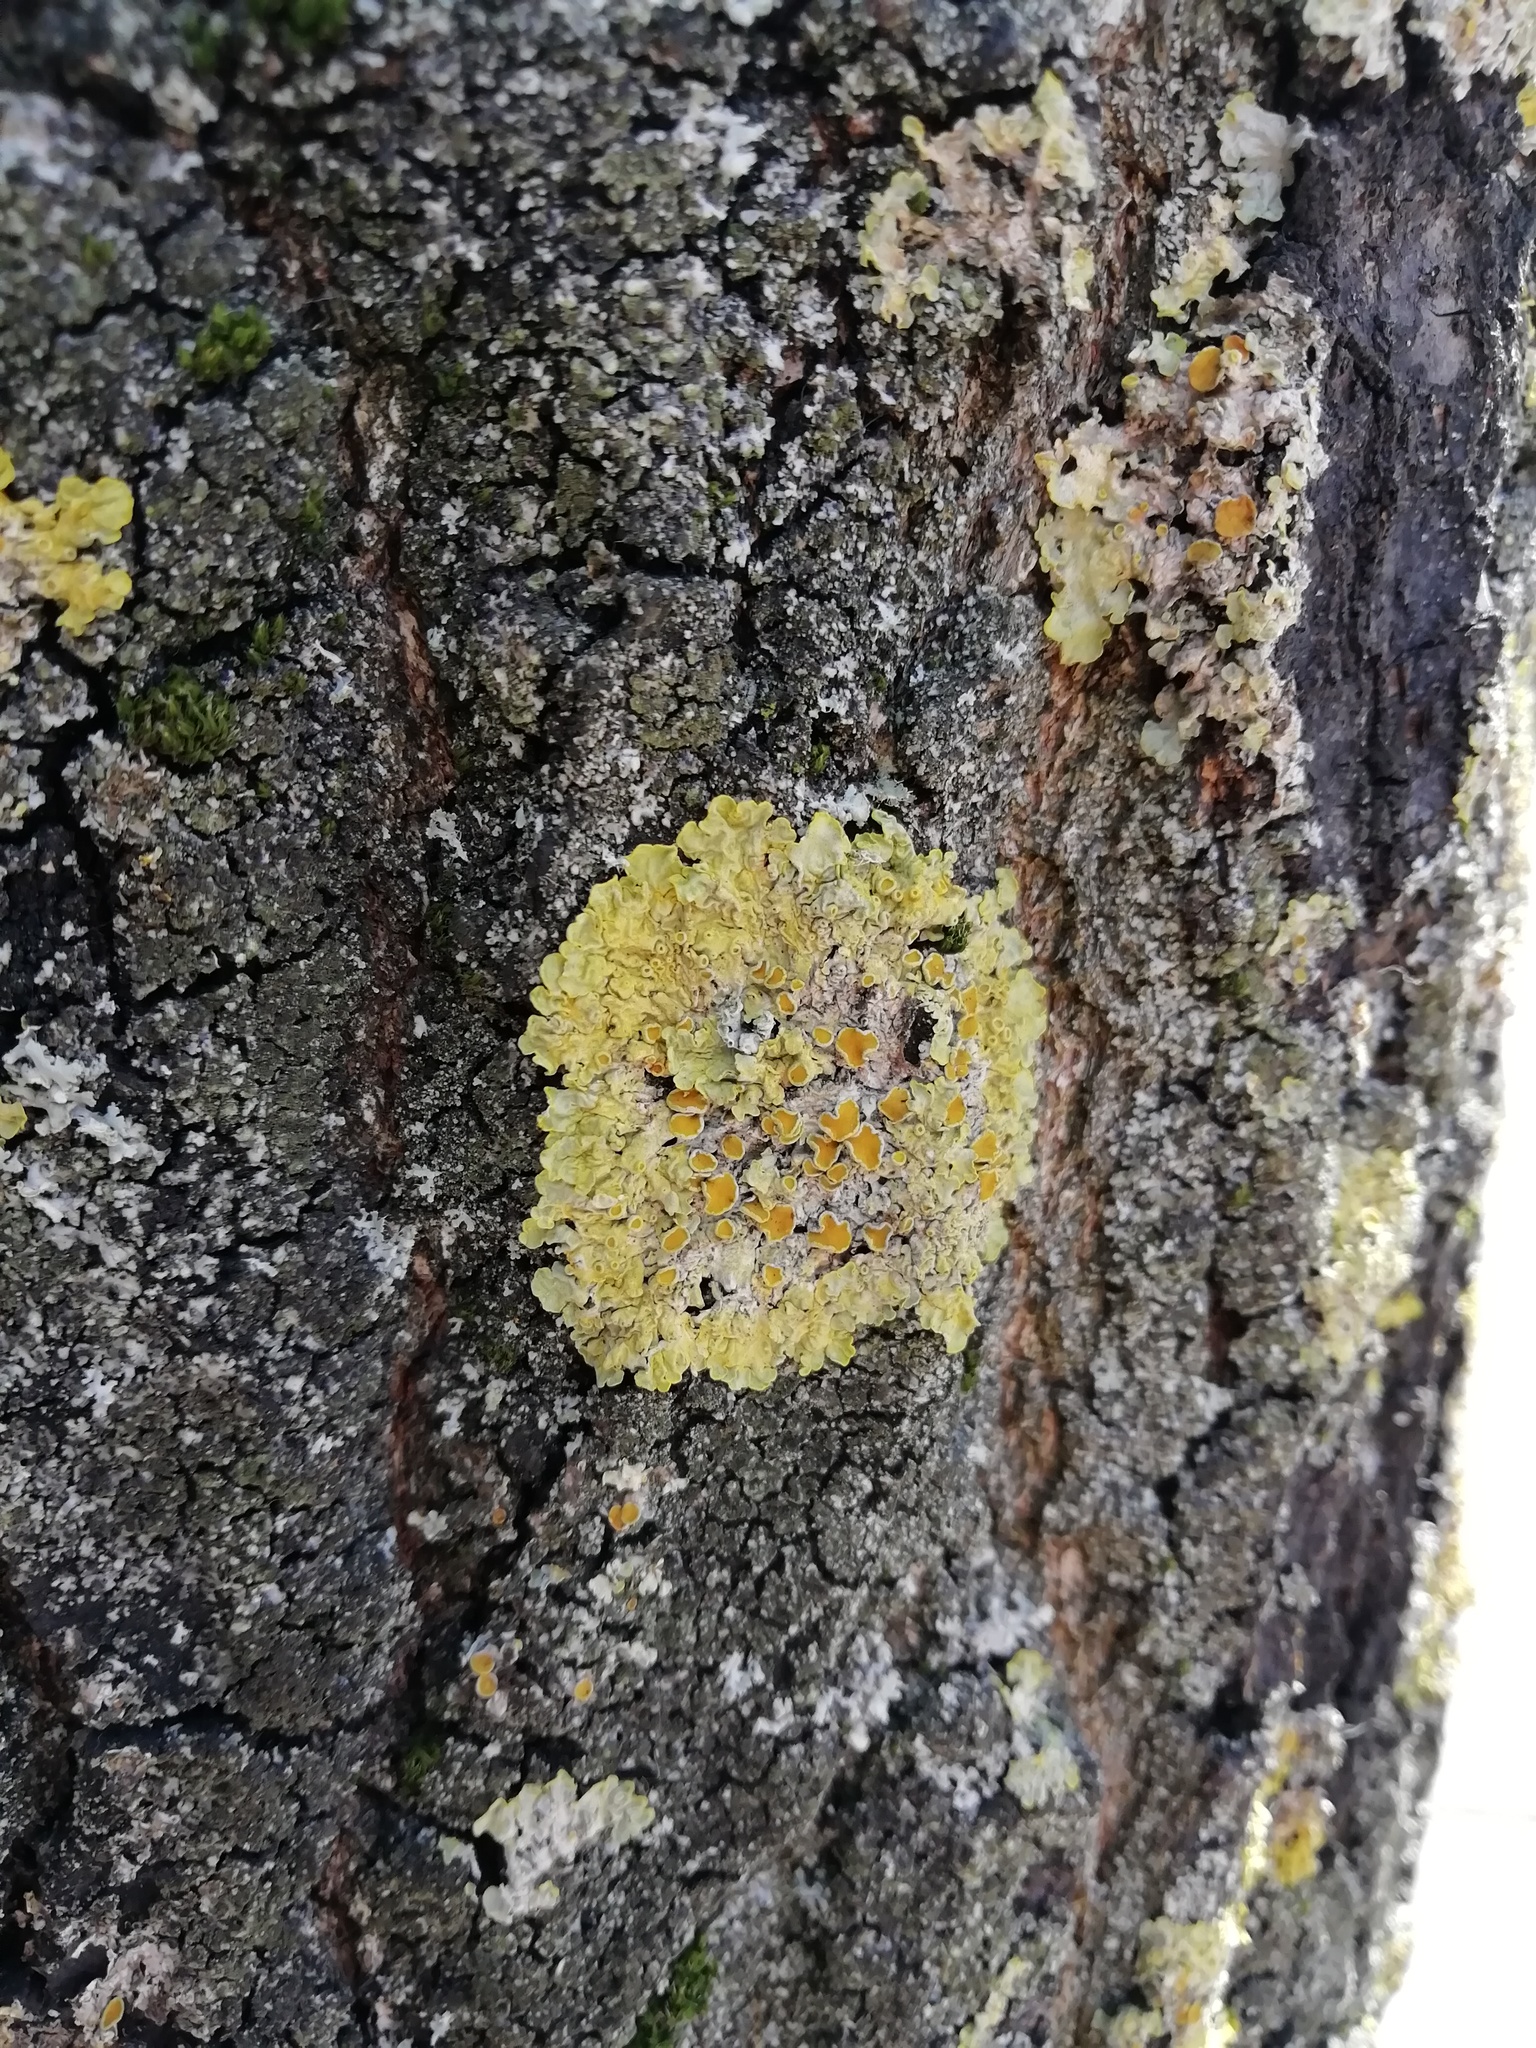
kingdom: Fungi
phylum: Ascomycota
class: Lecanoromycetes
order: Teloschistales
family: Teloschistaceae
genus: Xanthoria
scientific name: Xanthoria parietina
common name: Common orange lichen
